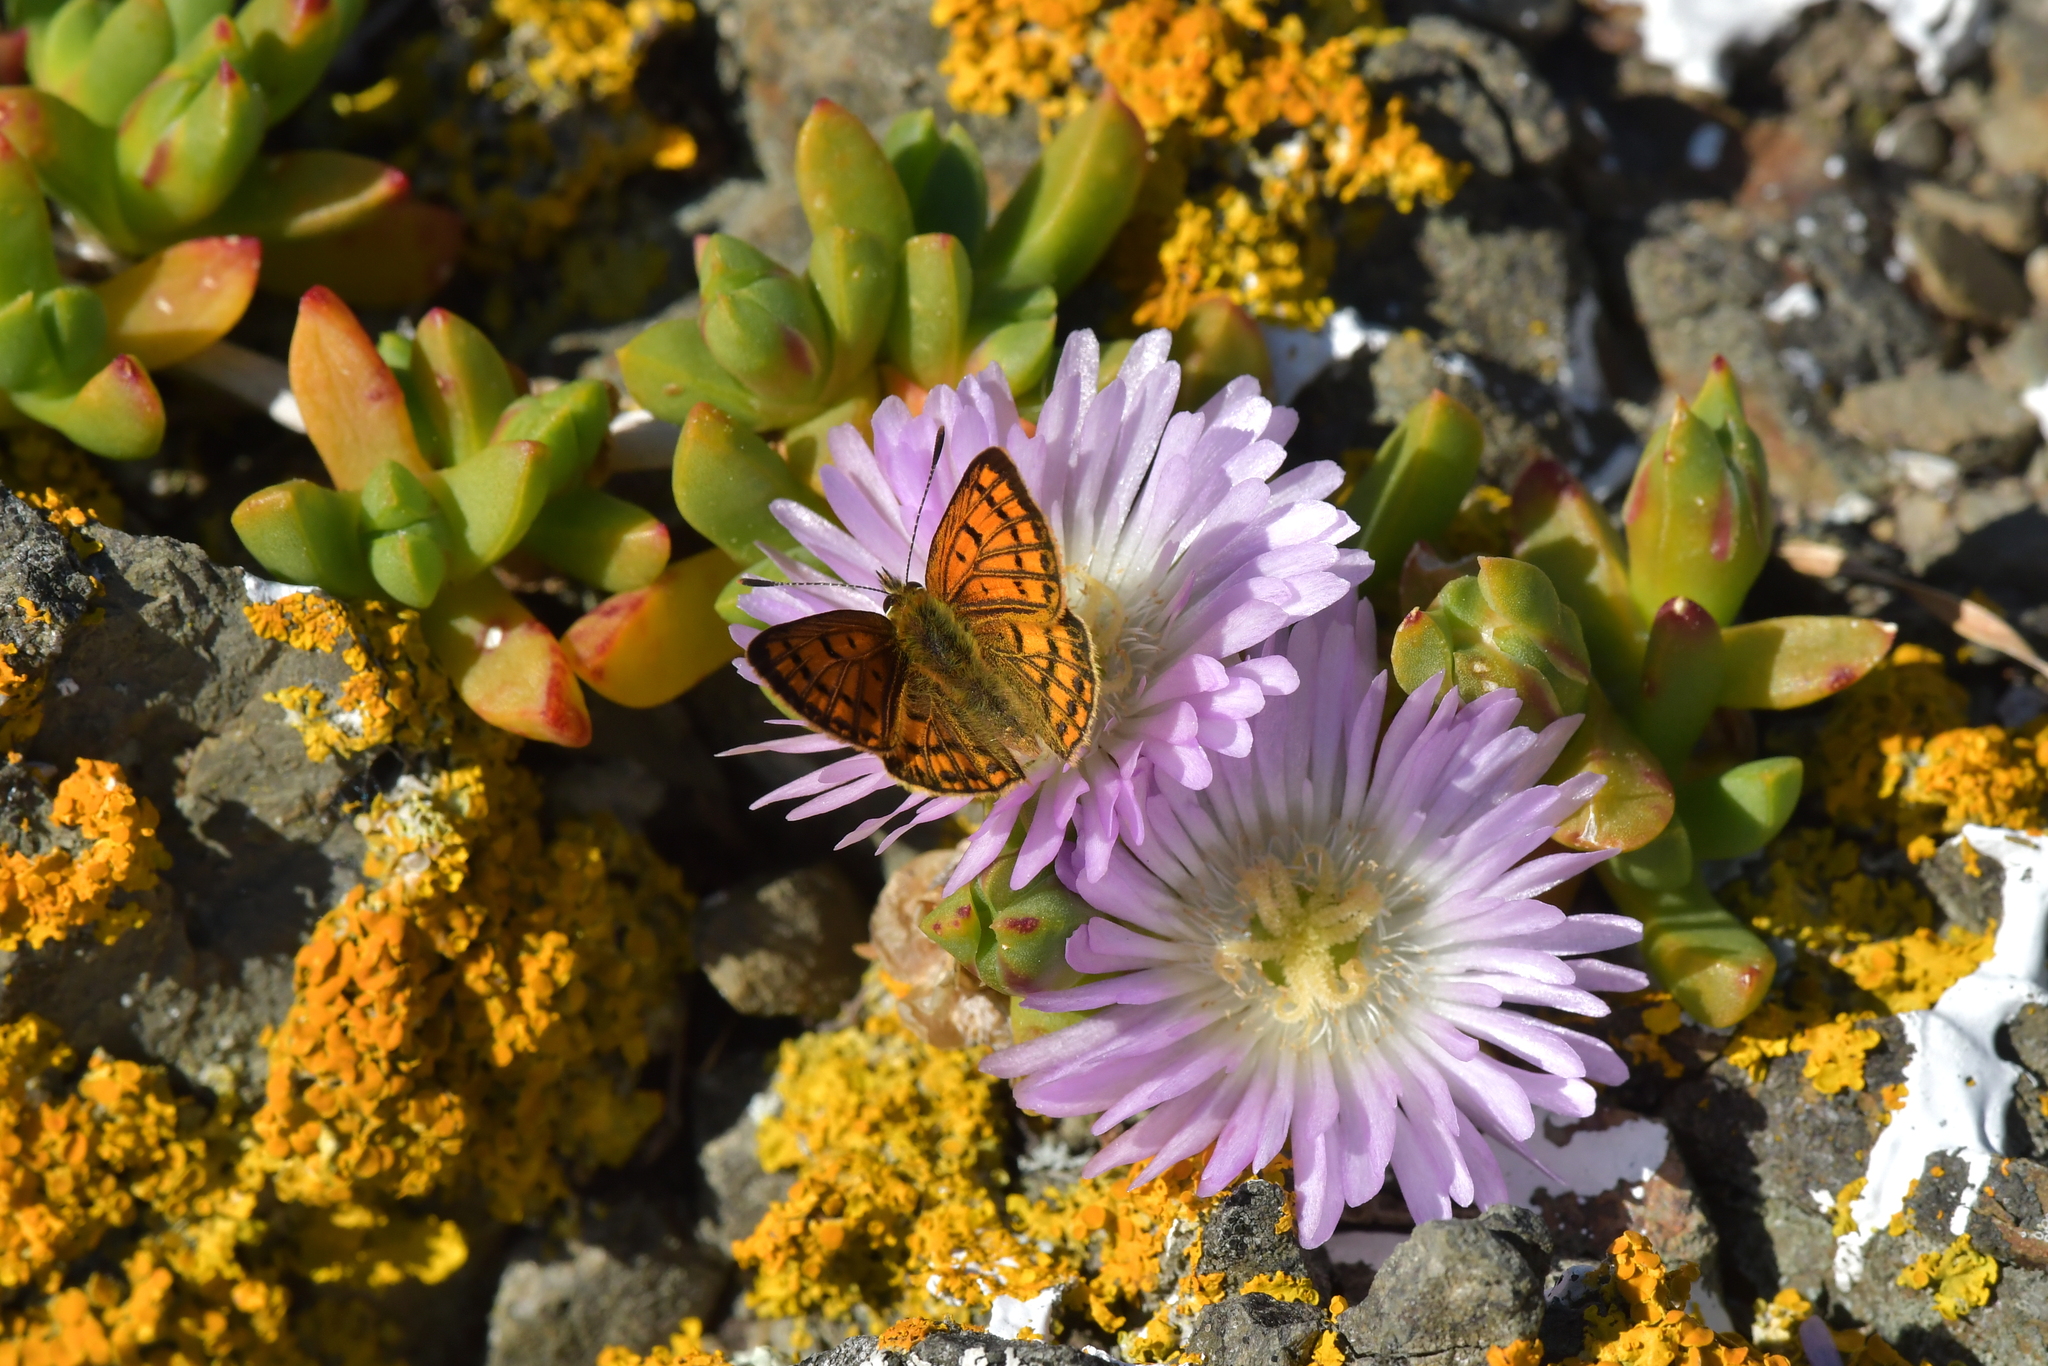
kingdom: Animalia
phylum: Arthropoda
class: Insecta
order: Lepidoptera
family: Lycaenidae
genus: Lycaena
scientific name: Lycaena salustius
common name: North island coastal copper
